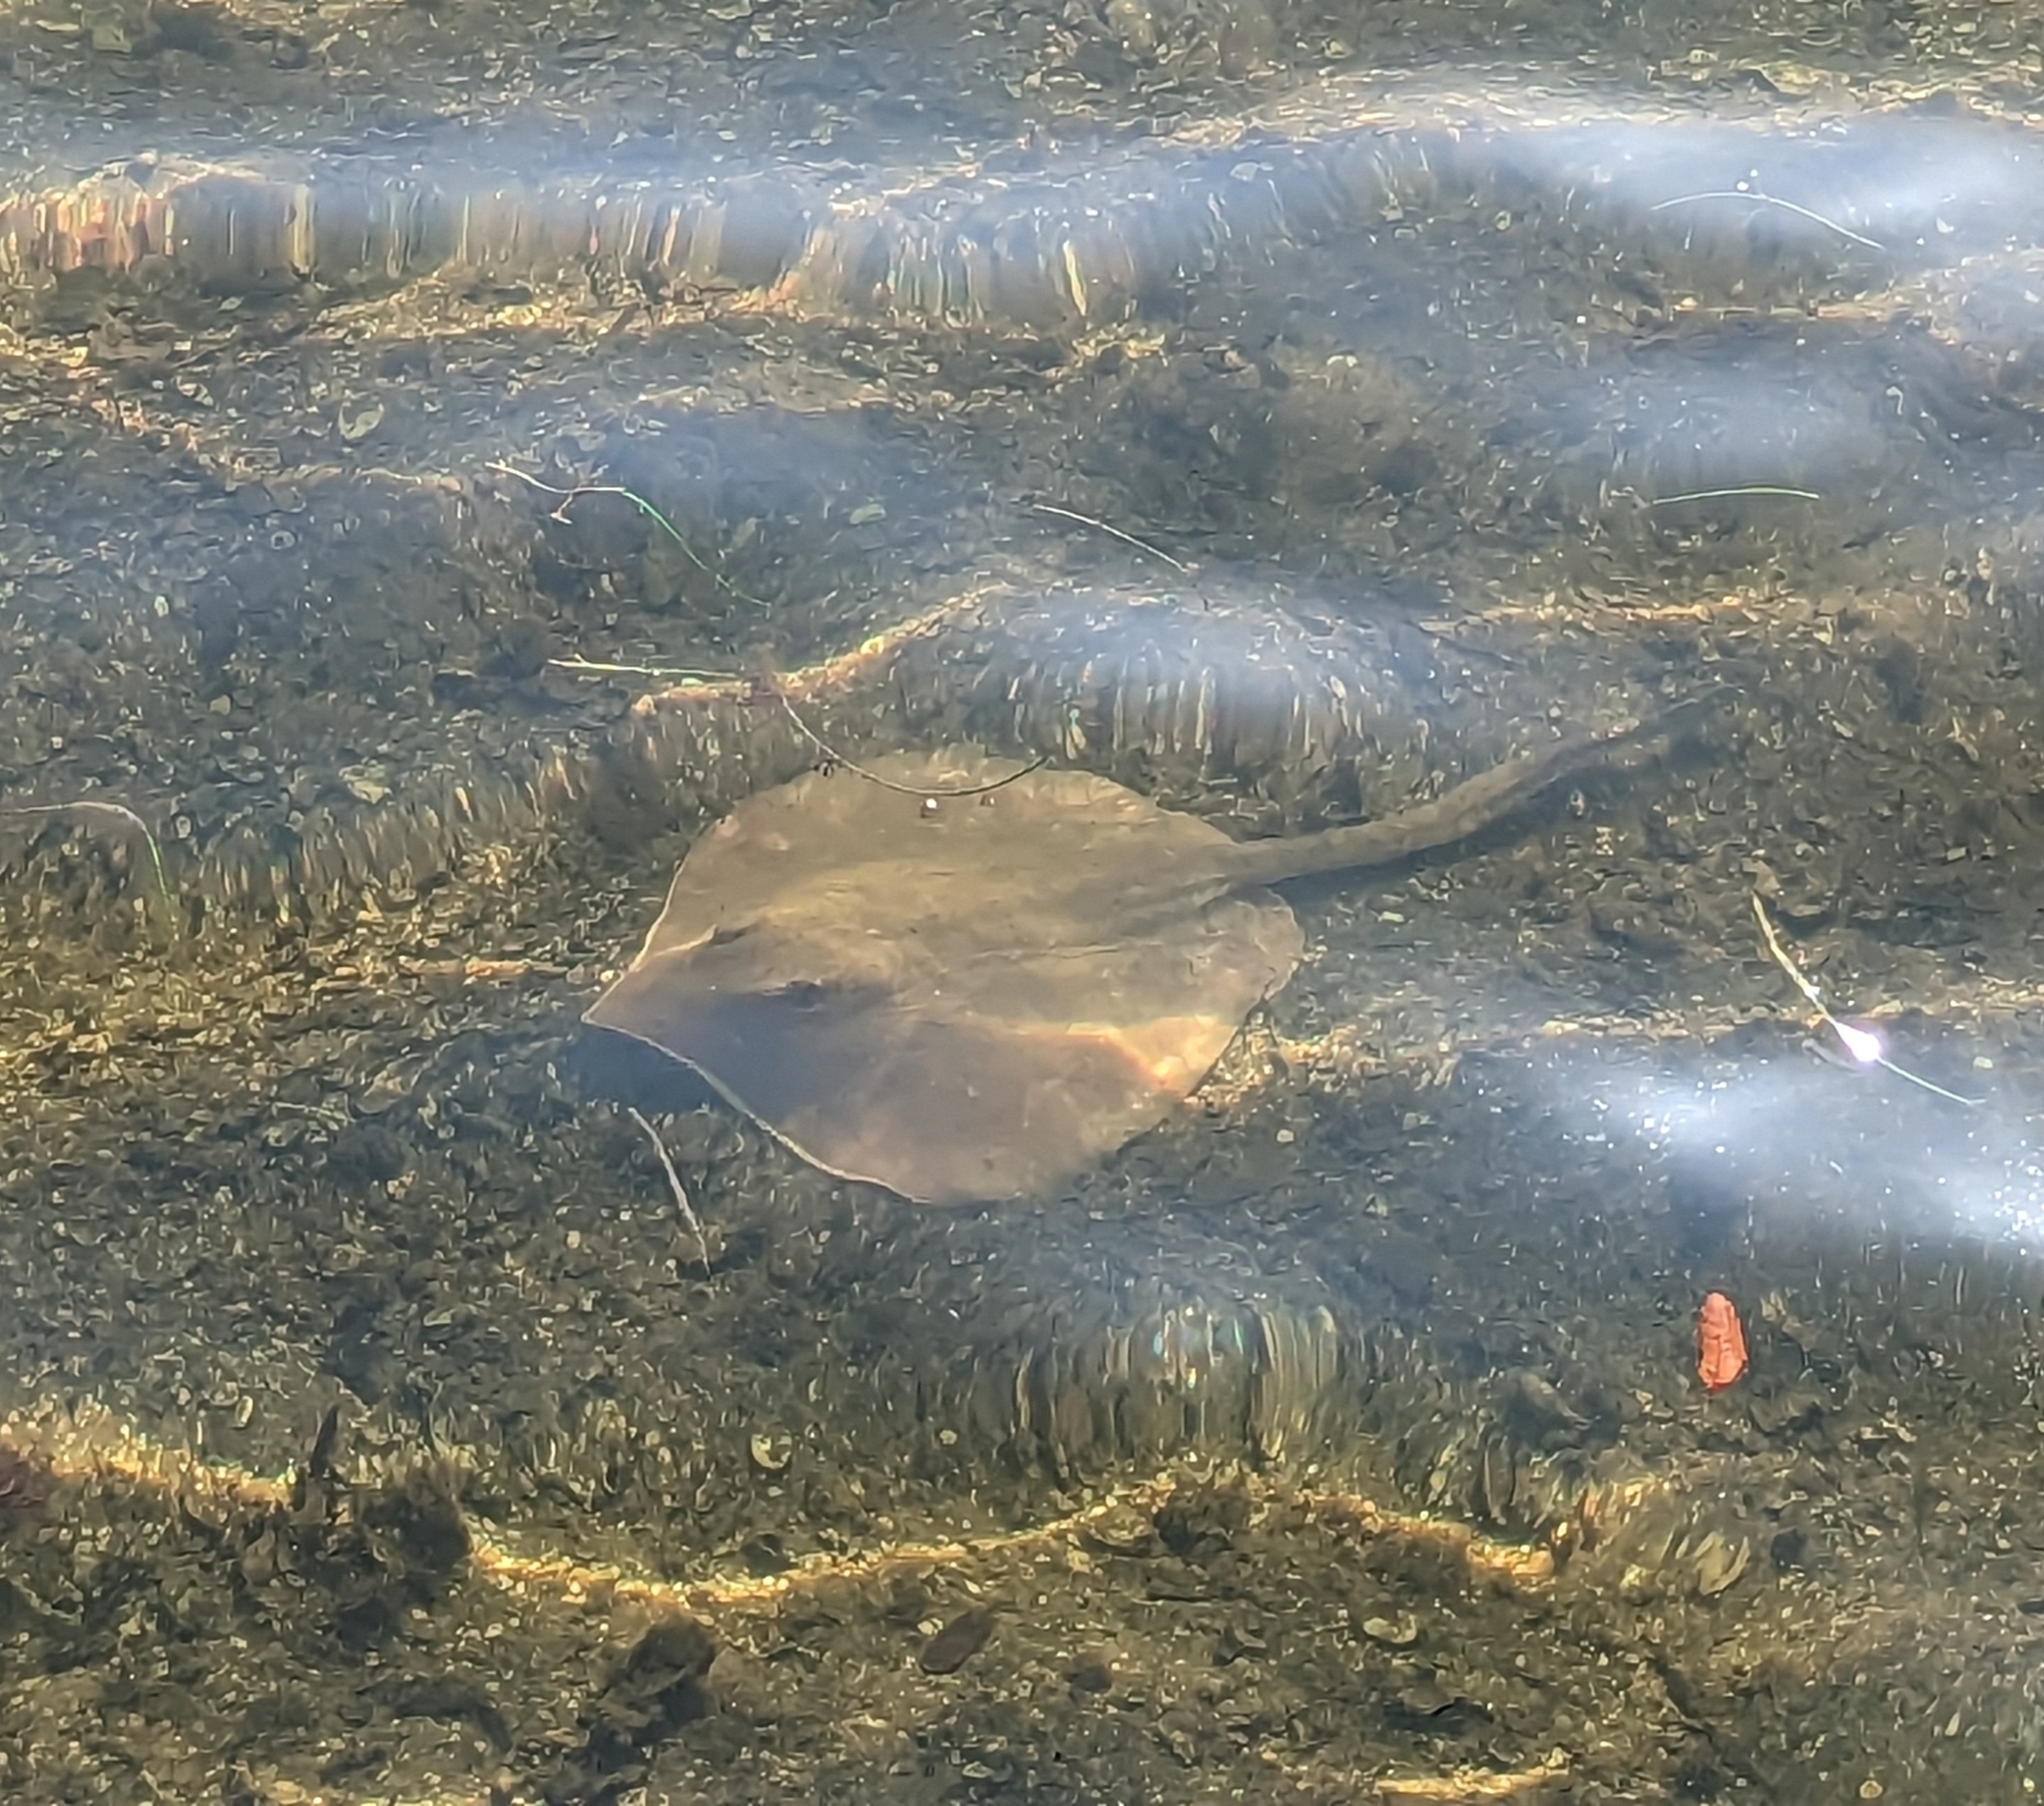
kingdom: Animalia
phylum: Chordata
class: Elasmobranchii
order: Myliobatiformes
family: Dasyatidae
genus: Hypanus
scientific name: Hypanus sabinus
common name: Atlantic stingray
